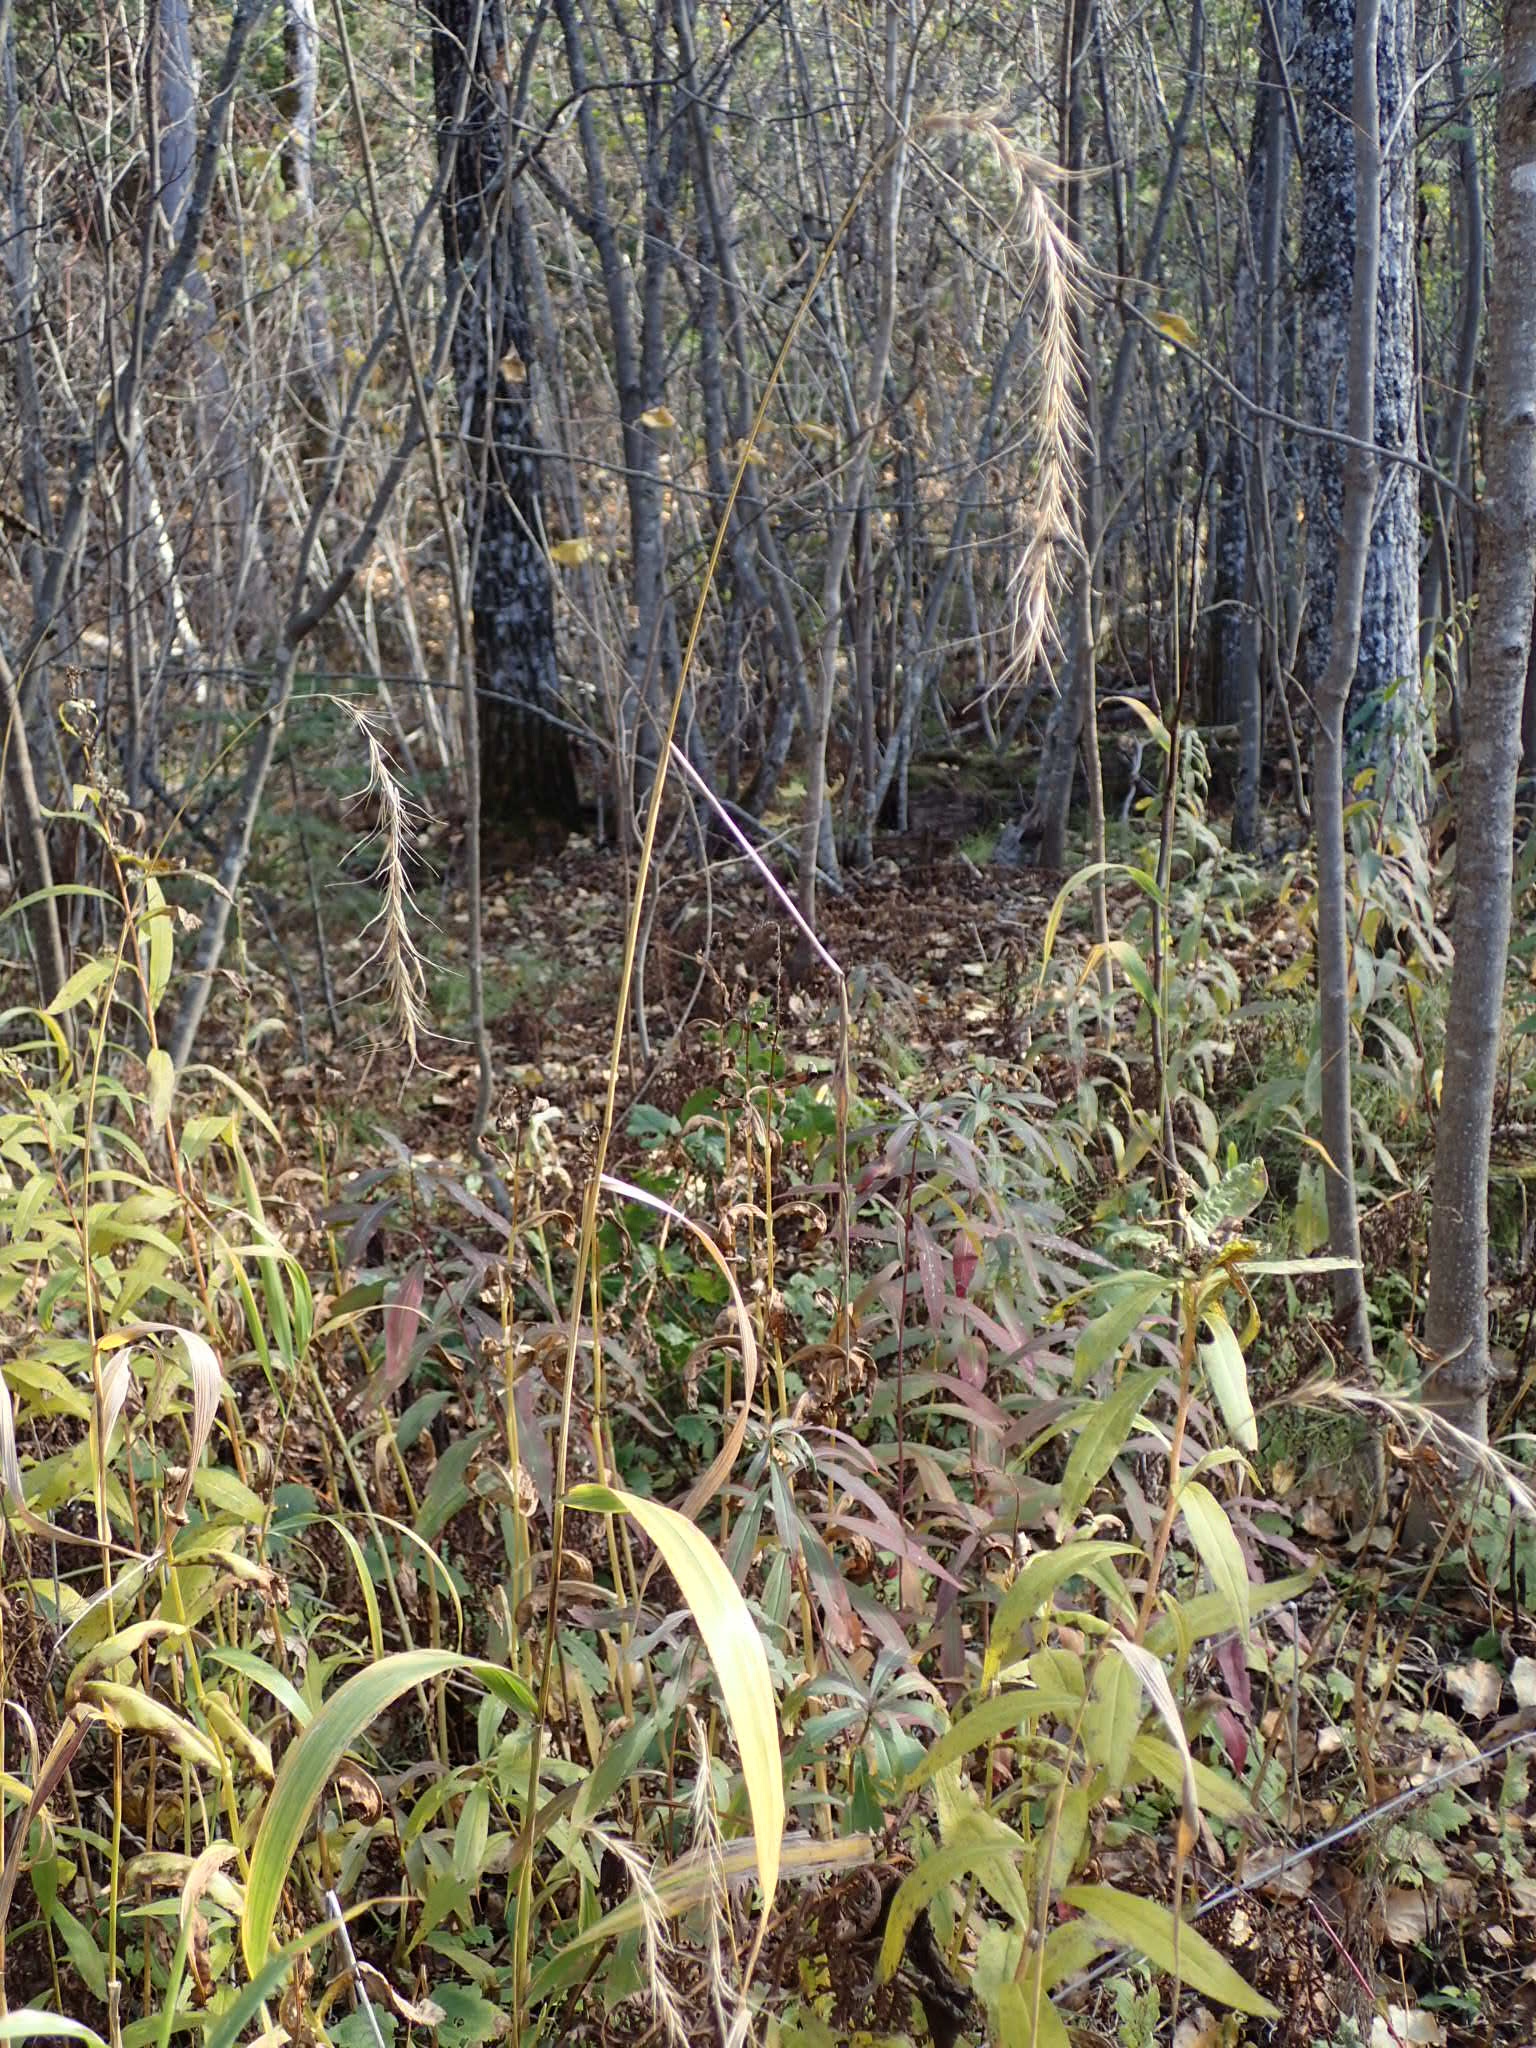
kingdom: Plantae
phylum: Tracheophyta
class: Liliopsida
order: Poales
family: Poaceae
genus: Elymus
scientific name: Elymus canadensis
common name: Canada wild rye
